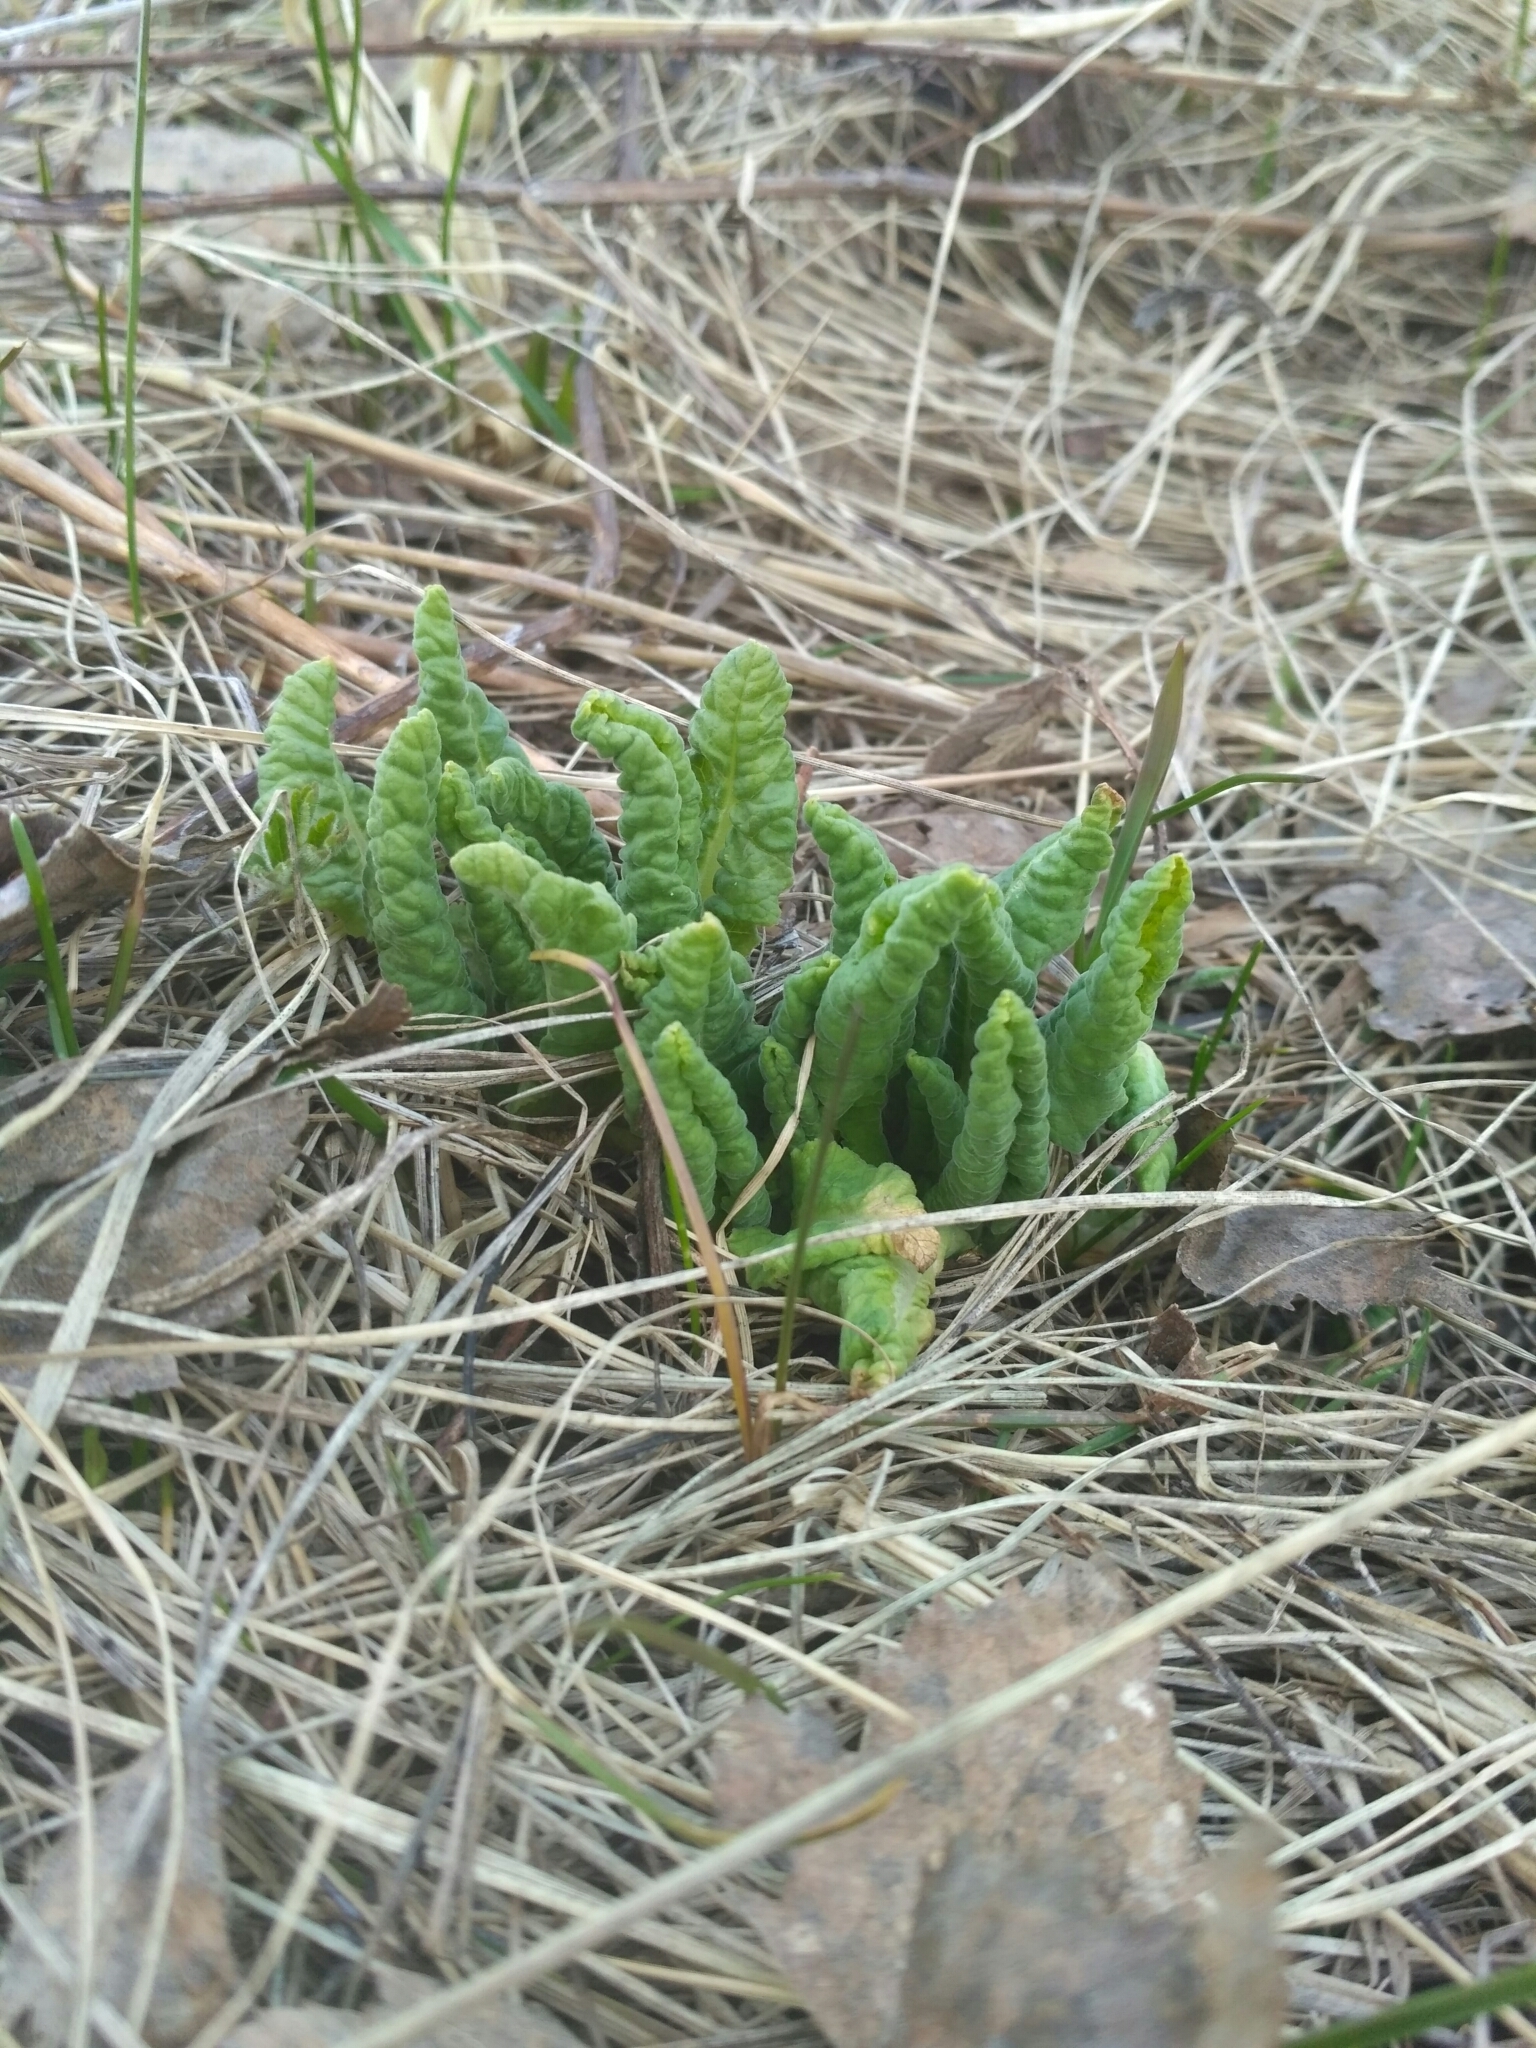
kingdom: Plantae
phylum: Tracheophyta
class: Magnoliopsida
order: Ericales
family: Primulaceae
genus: Primula
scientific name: Primula veris
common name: Cowslip
